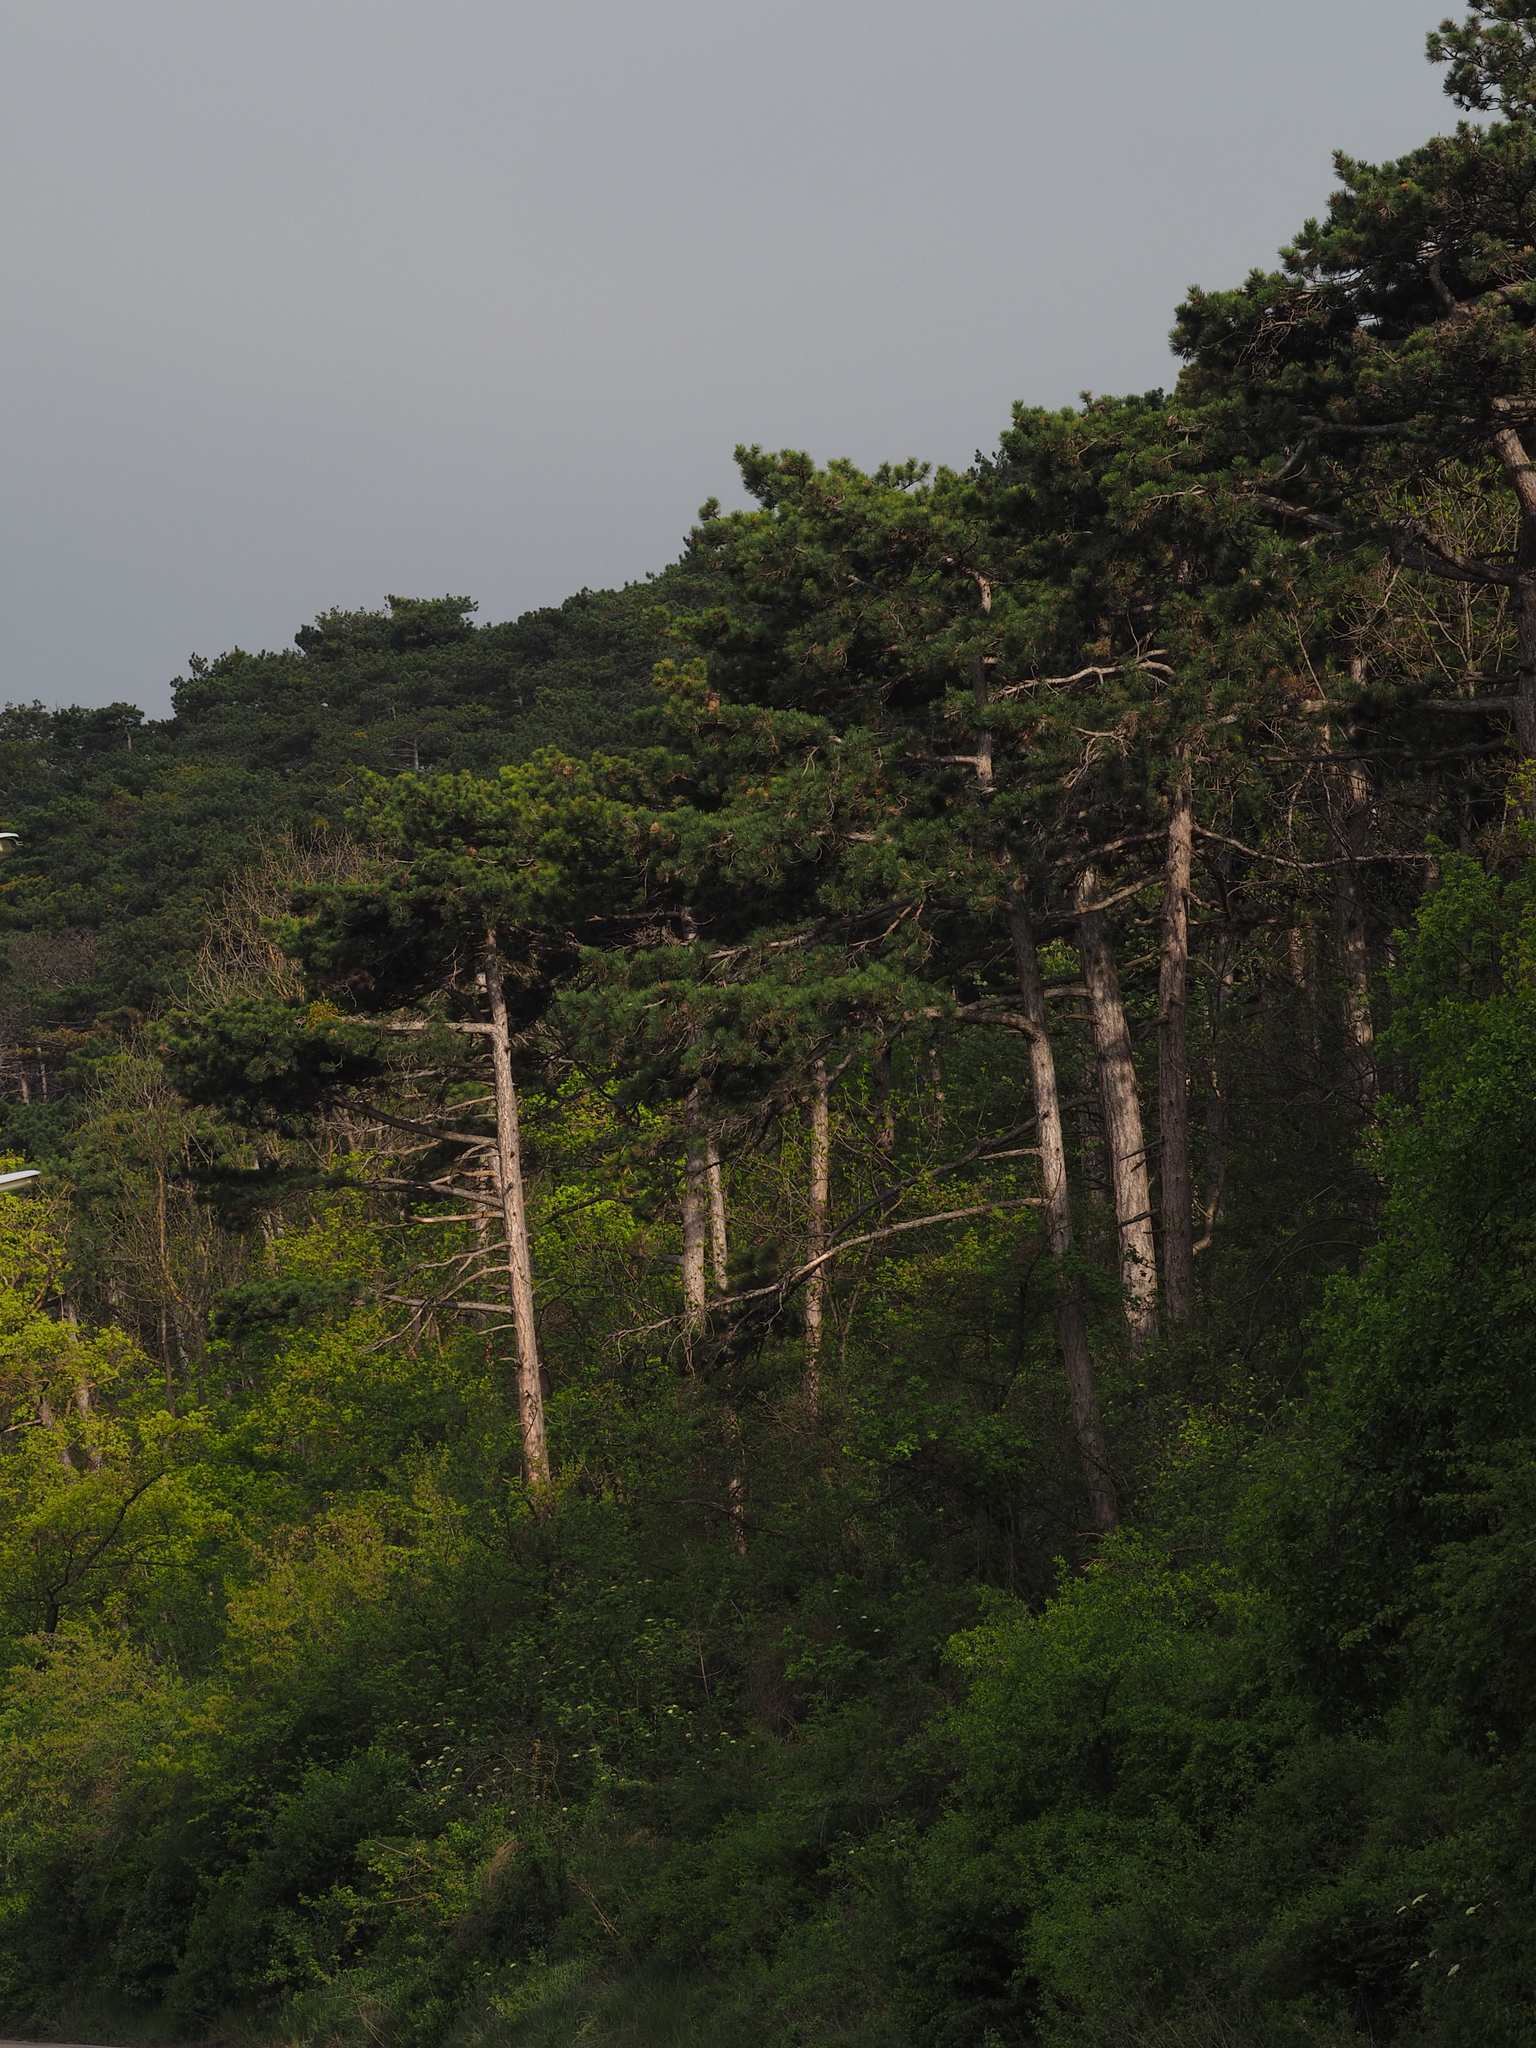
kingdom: Plantae
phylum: Tracheophyta
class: Pinopsida
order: Pinales
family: Pinaceae
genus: Pinus
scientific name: Pinus nigra
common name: Austrian pine
